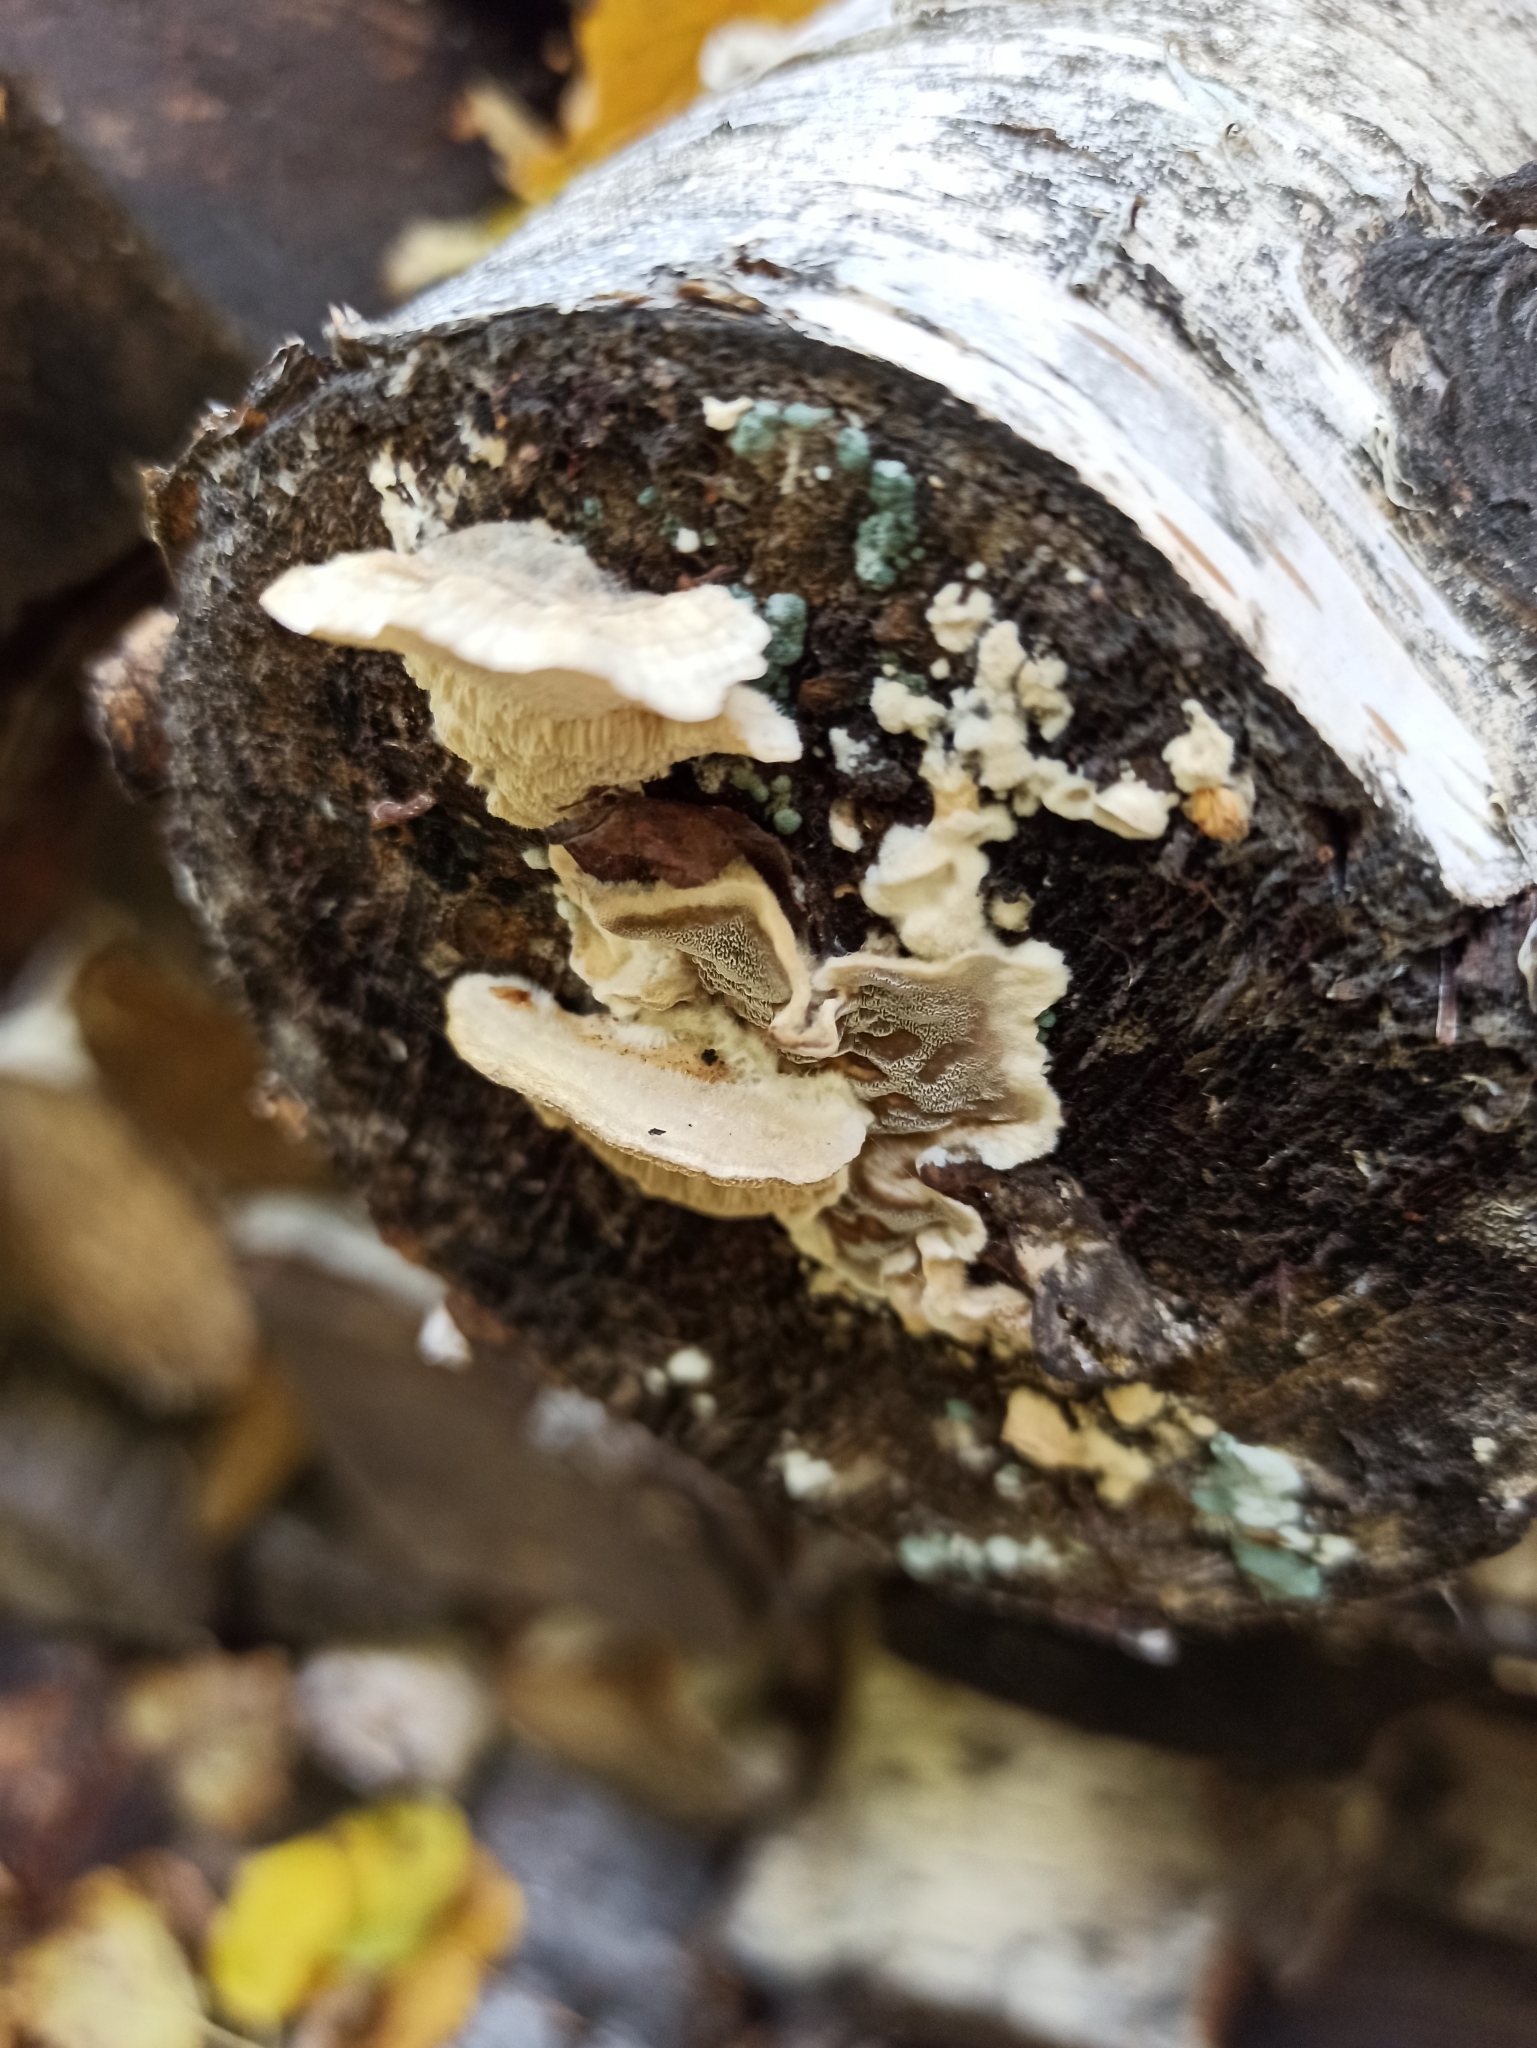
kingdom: Fungi
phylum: Basidiomycota
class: Agaricomycetes
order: Polyporales
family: Phanerochaetaceae
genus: Bjerkandera
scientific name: Bjerkandera adusta
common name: Smoky bracket
